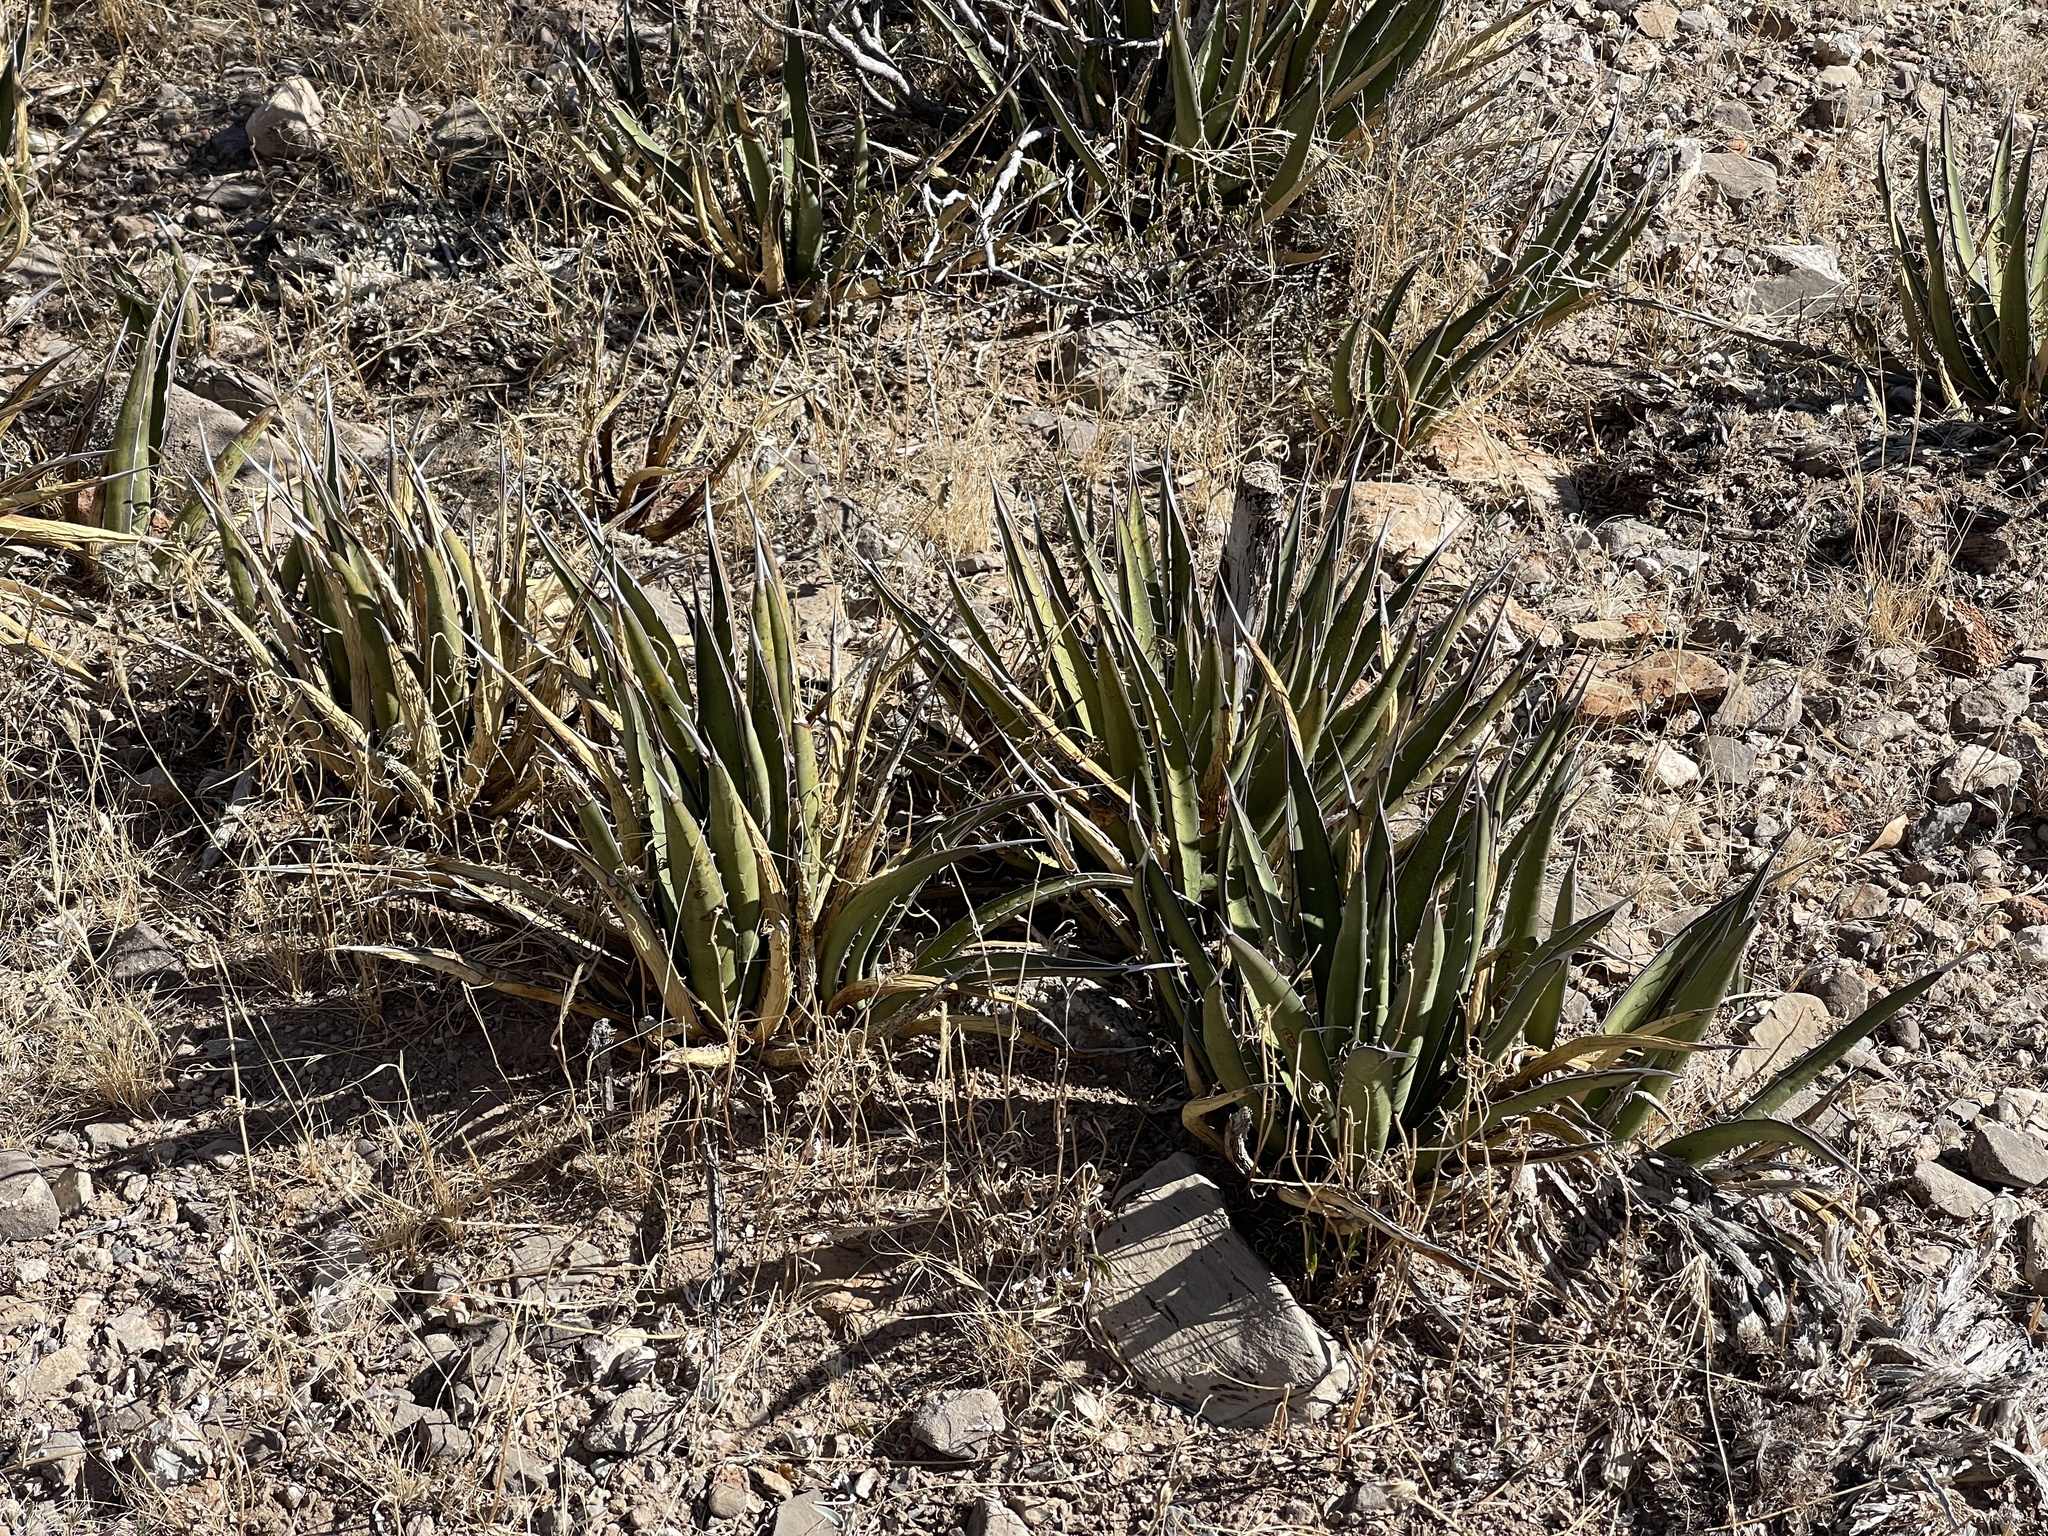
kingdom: Plantae
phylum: Tracheophyta
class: Liliopsida
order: Asparagales
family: Asparagaceae
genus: Agave
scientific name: Agave lechuguilla
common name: Lecheguilla agave
